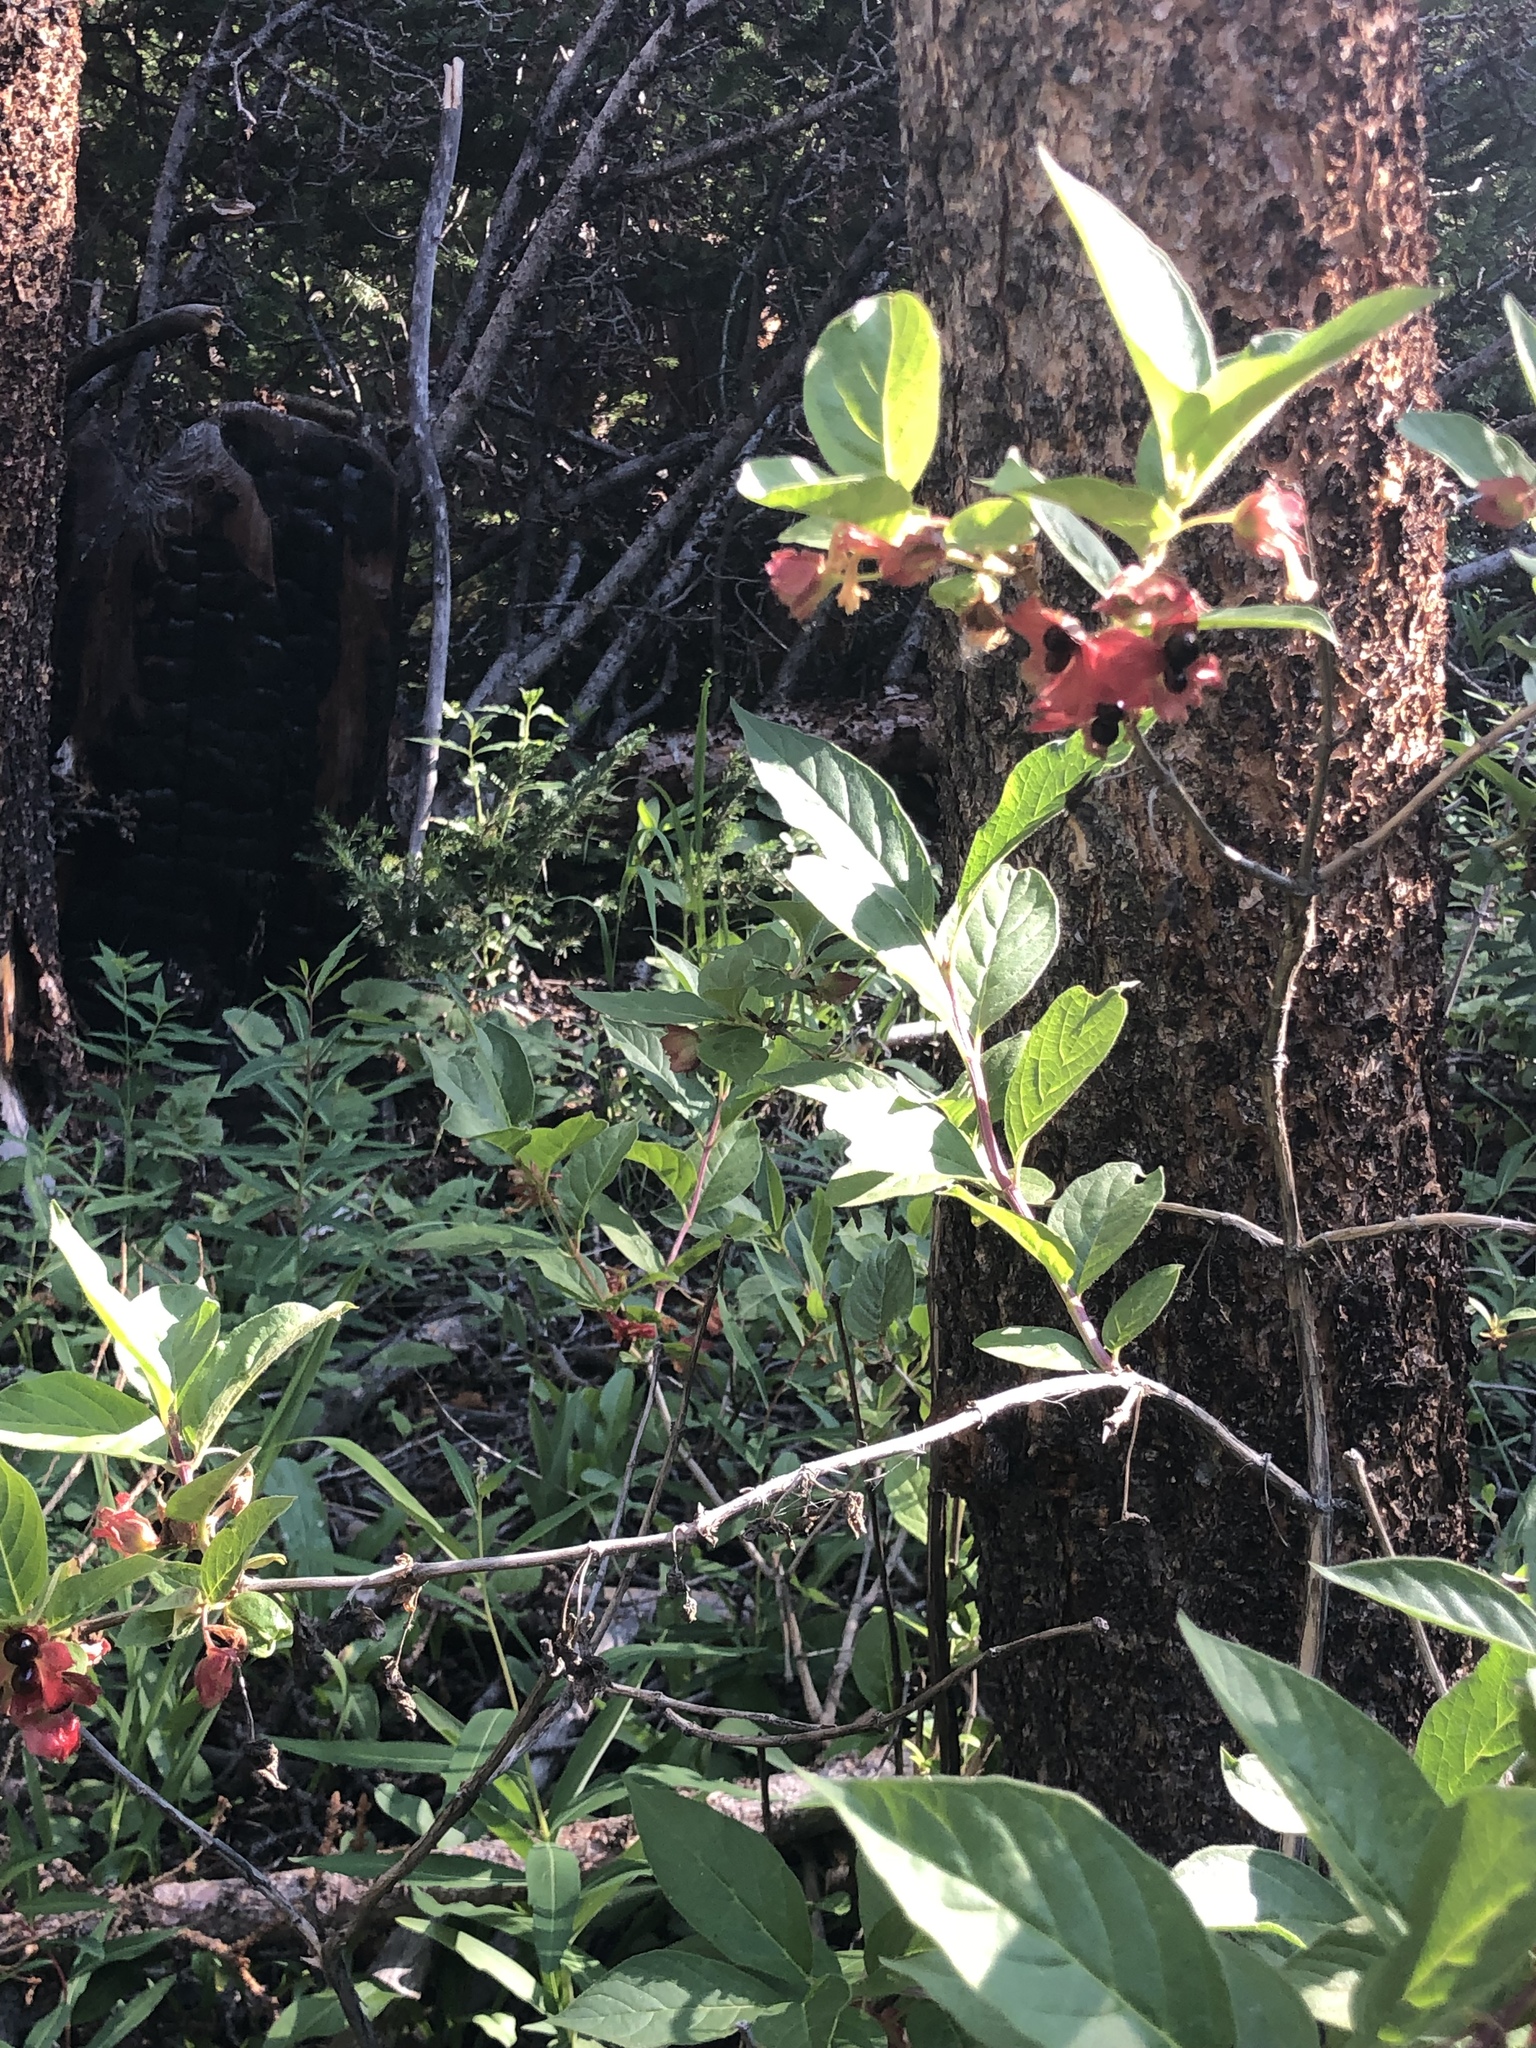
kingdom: Plantae
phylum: Tracheophyta
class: Magnoliopsida
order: Dipsacales
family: Caprifoliaceae
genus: Lonicera
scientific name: Lonicera involucrata
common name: Californian honeysuckle
